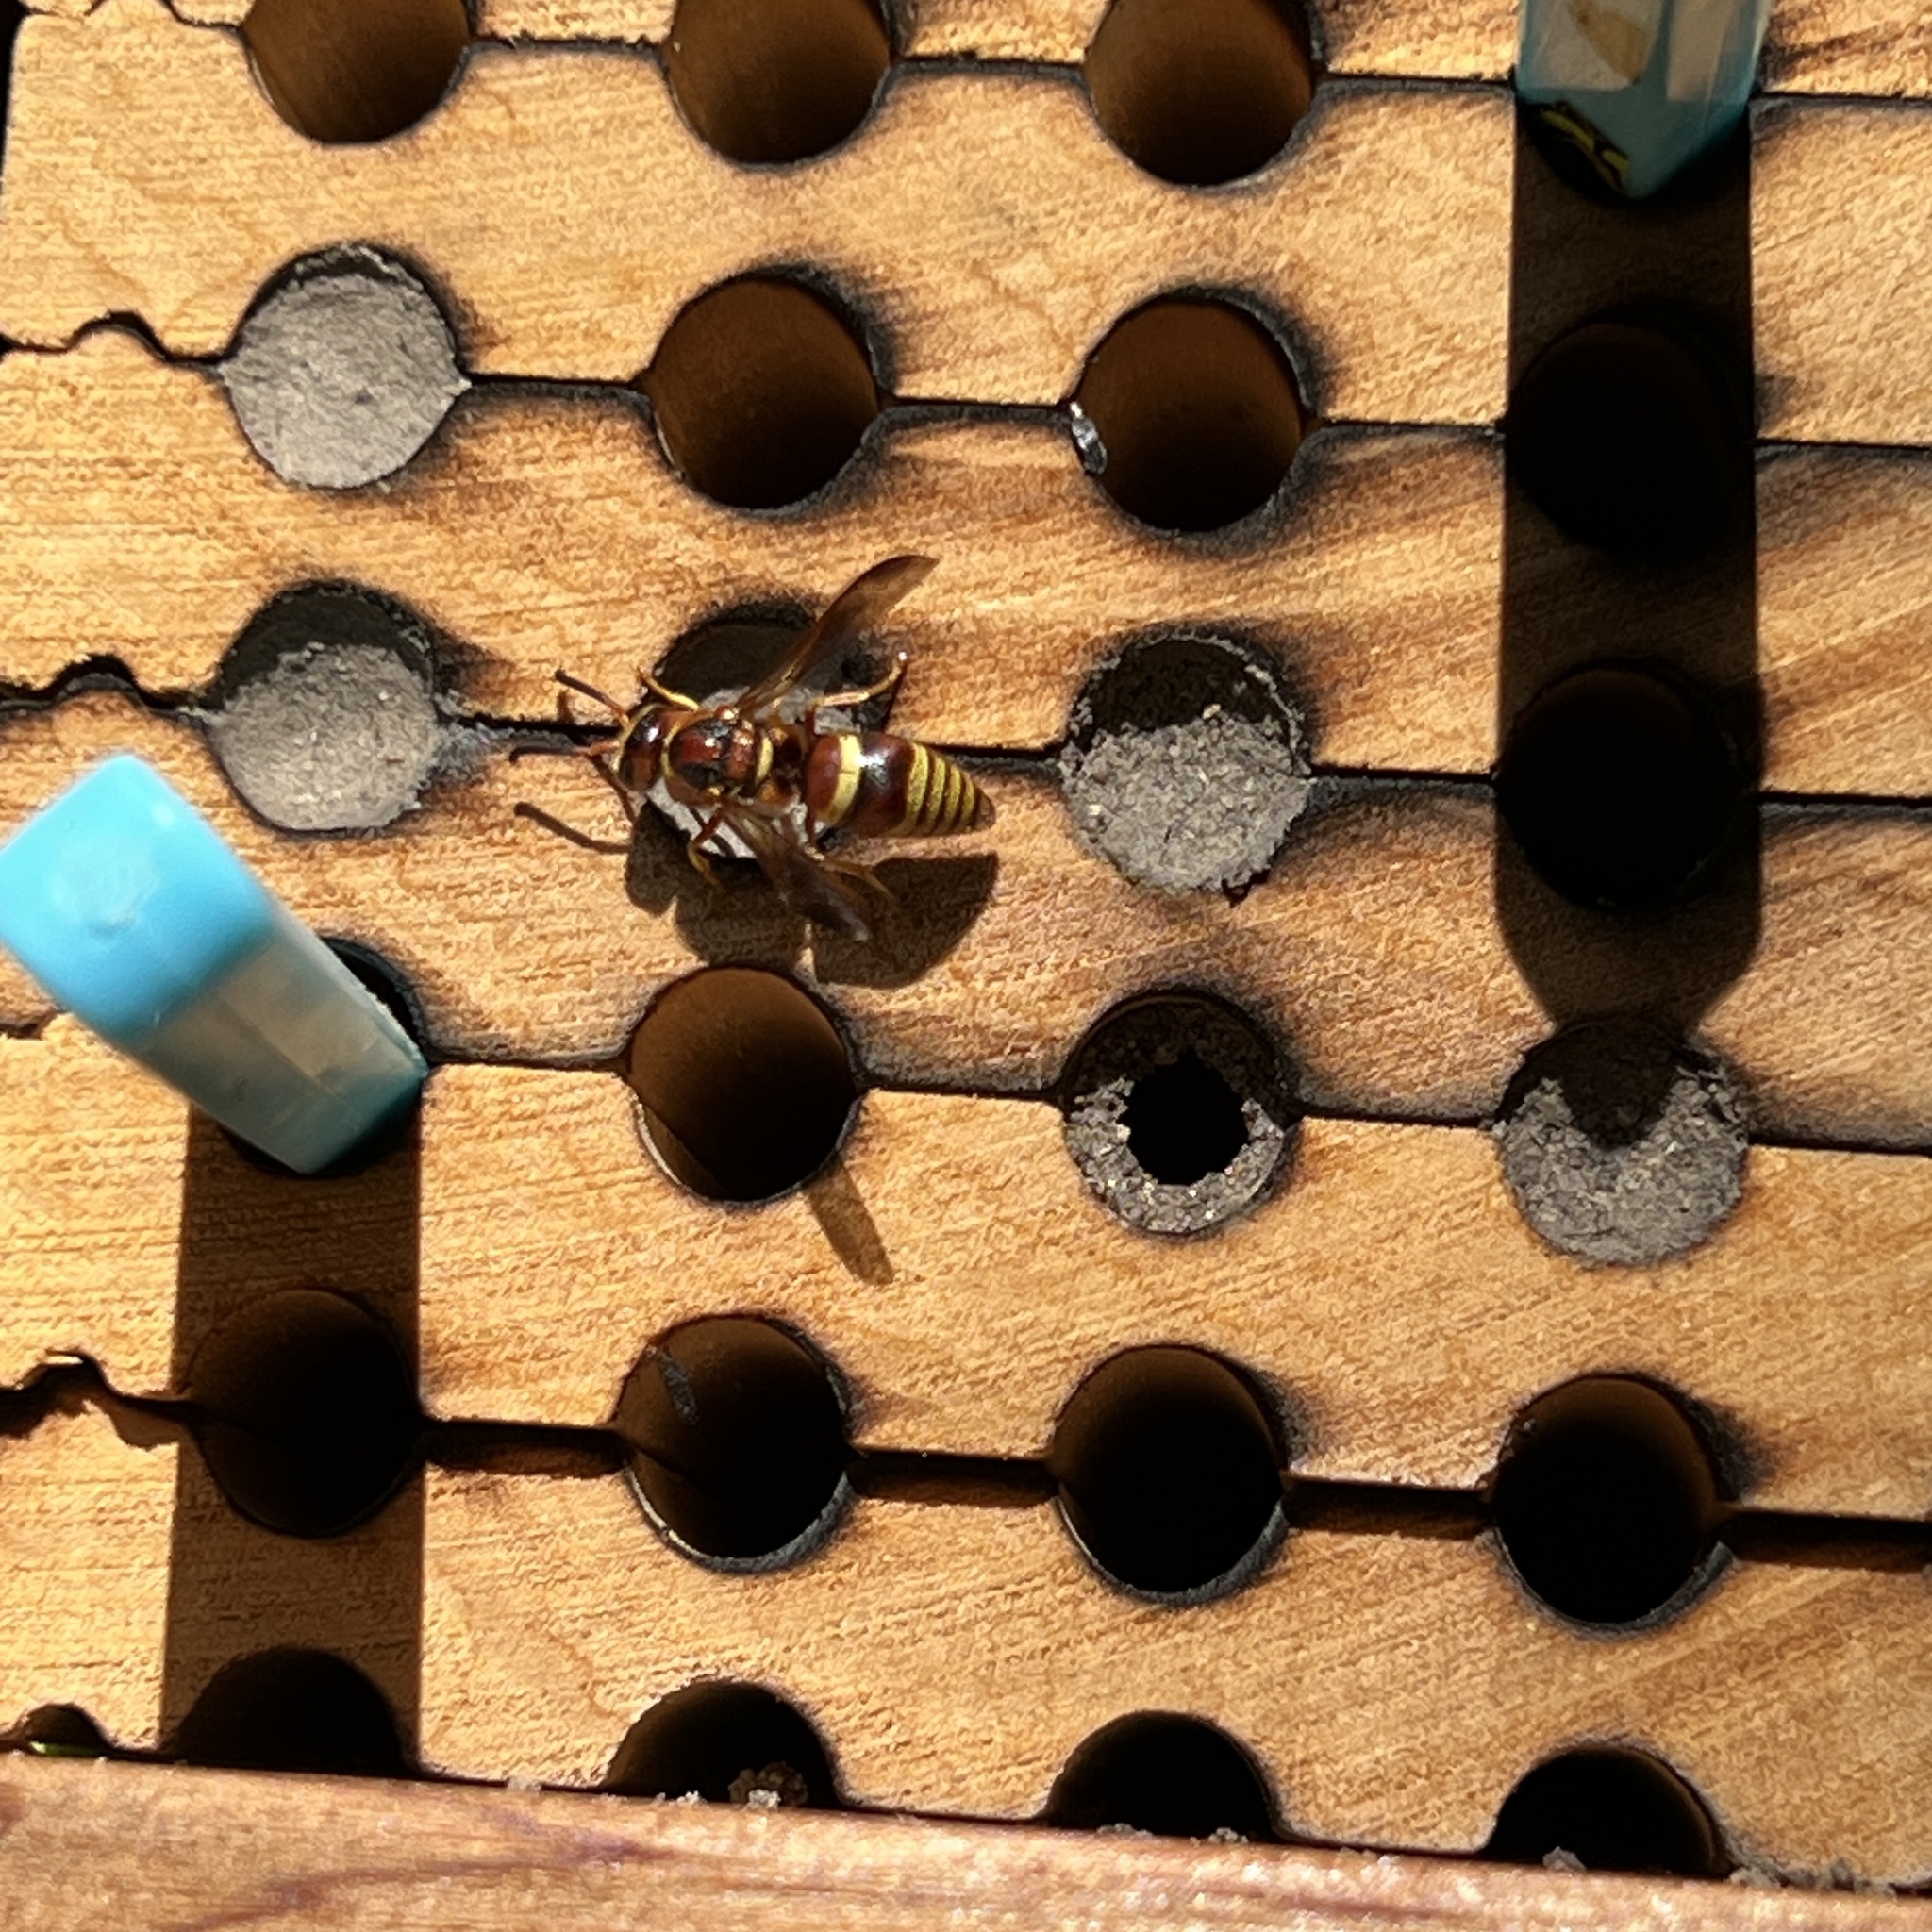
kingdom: Animalia
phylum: Arthropoda
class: Insecta
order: Hymenoptera
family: Eumenidae
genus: Euodynerus
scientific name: Euodynerus pratensis
